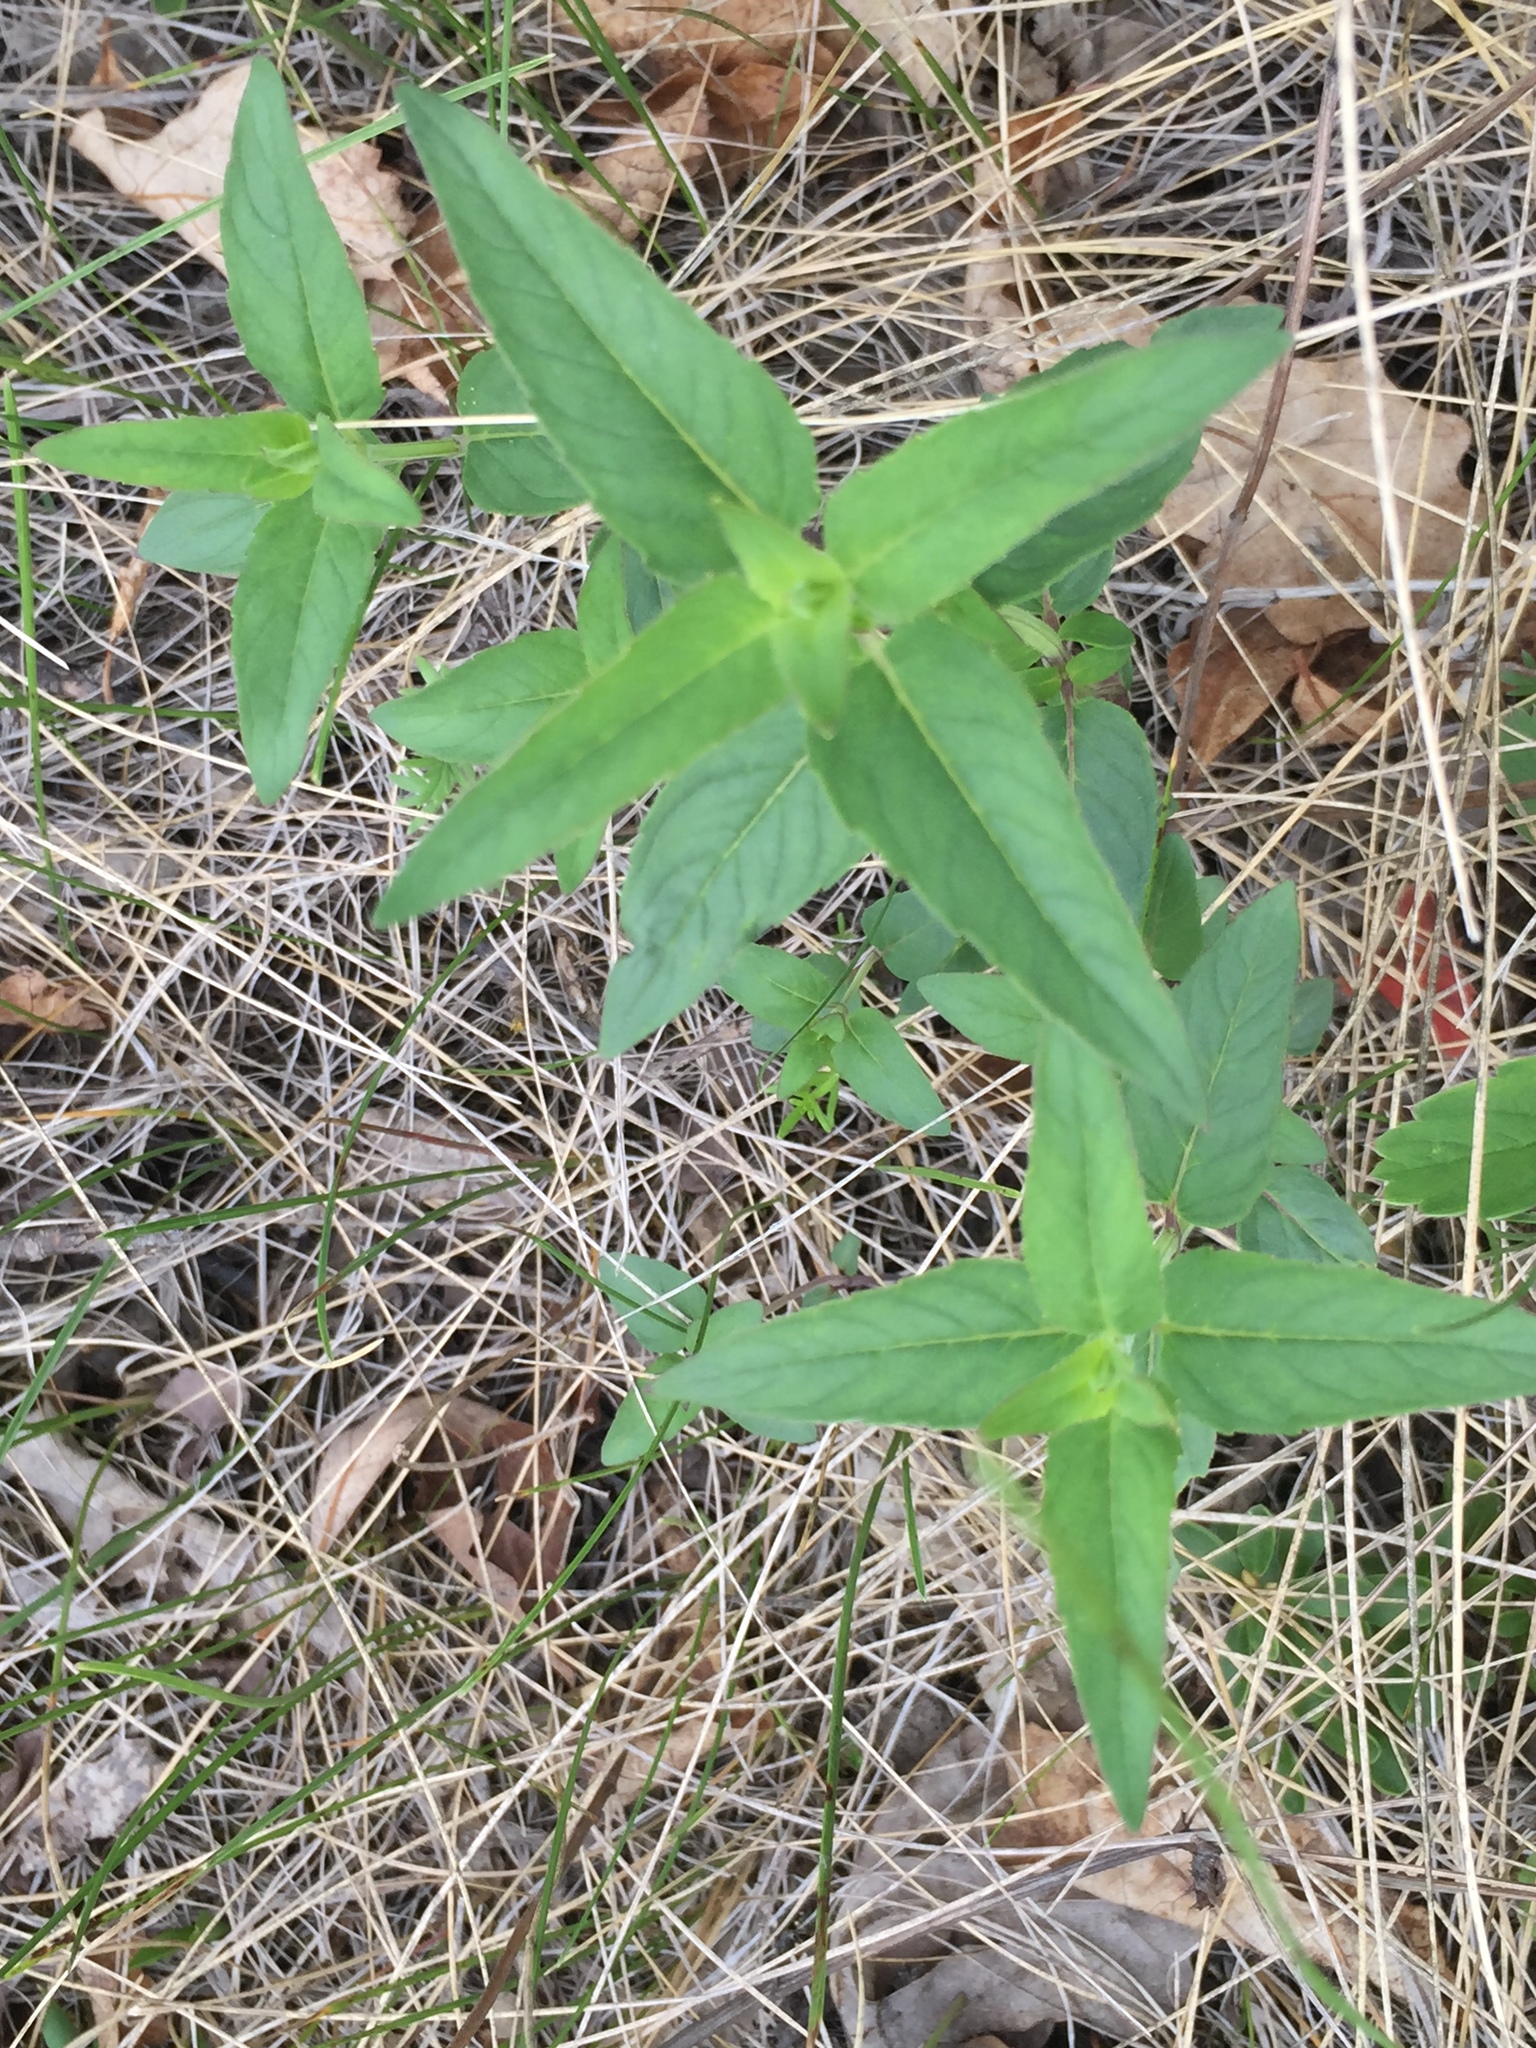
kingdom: Plantae
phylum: Tracheophyta
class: Magnoliopsida
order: Lamiales
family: Lamiaceae
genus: Monarda
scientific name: Monarda fistulosa
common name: Purple beebalm
